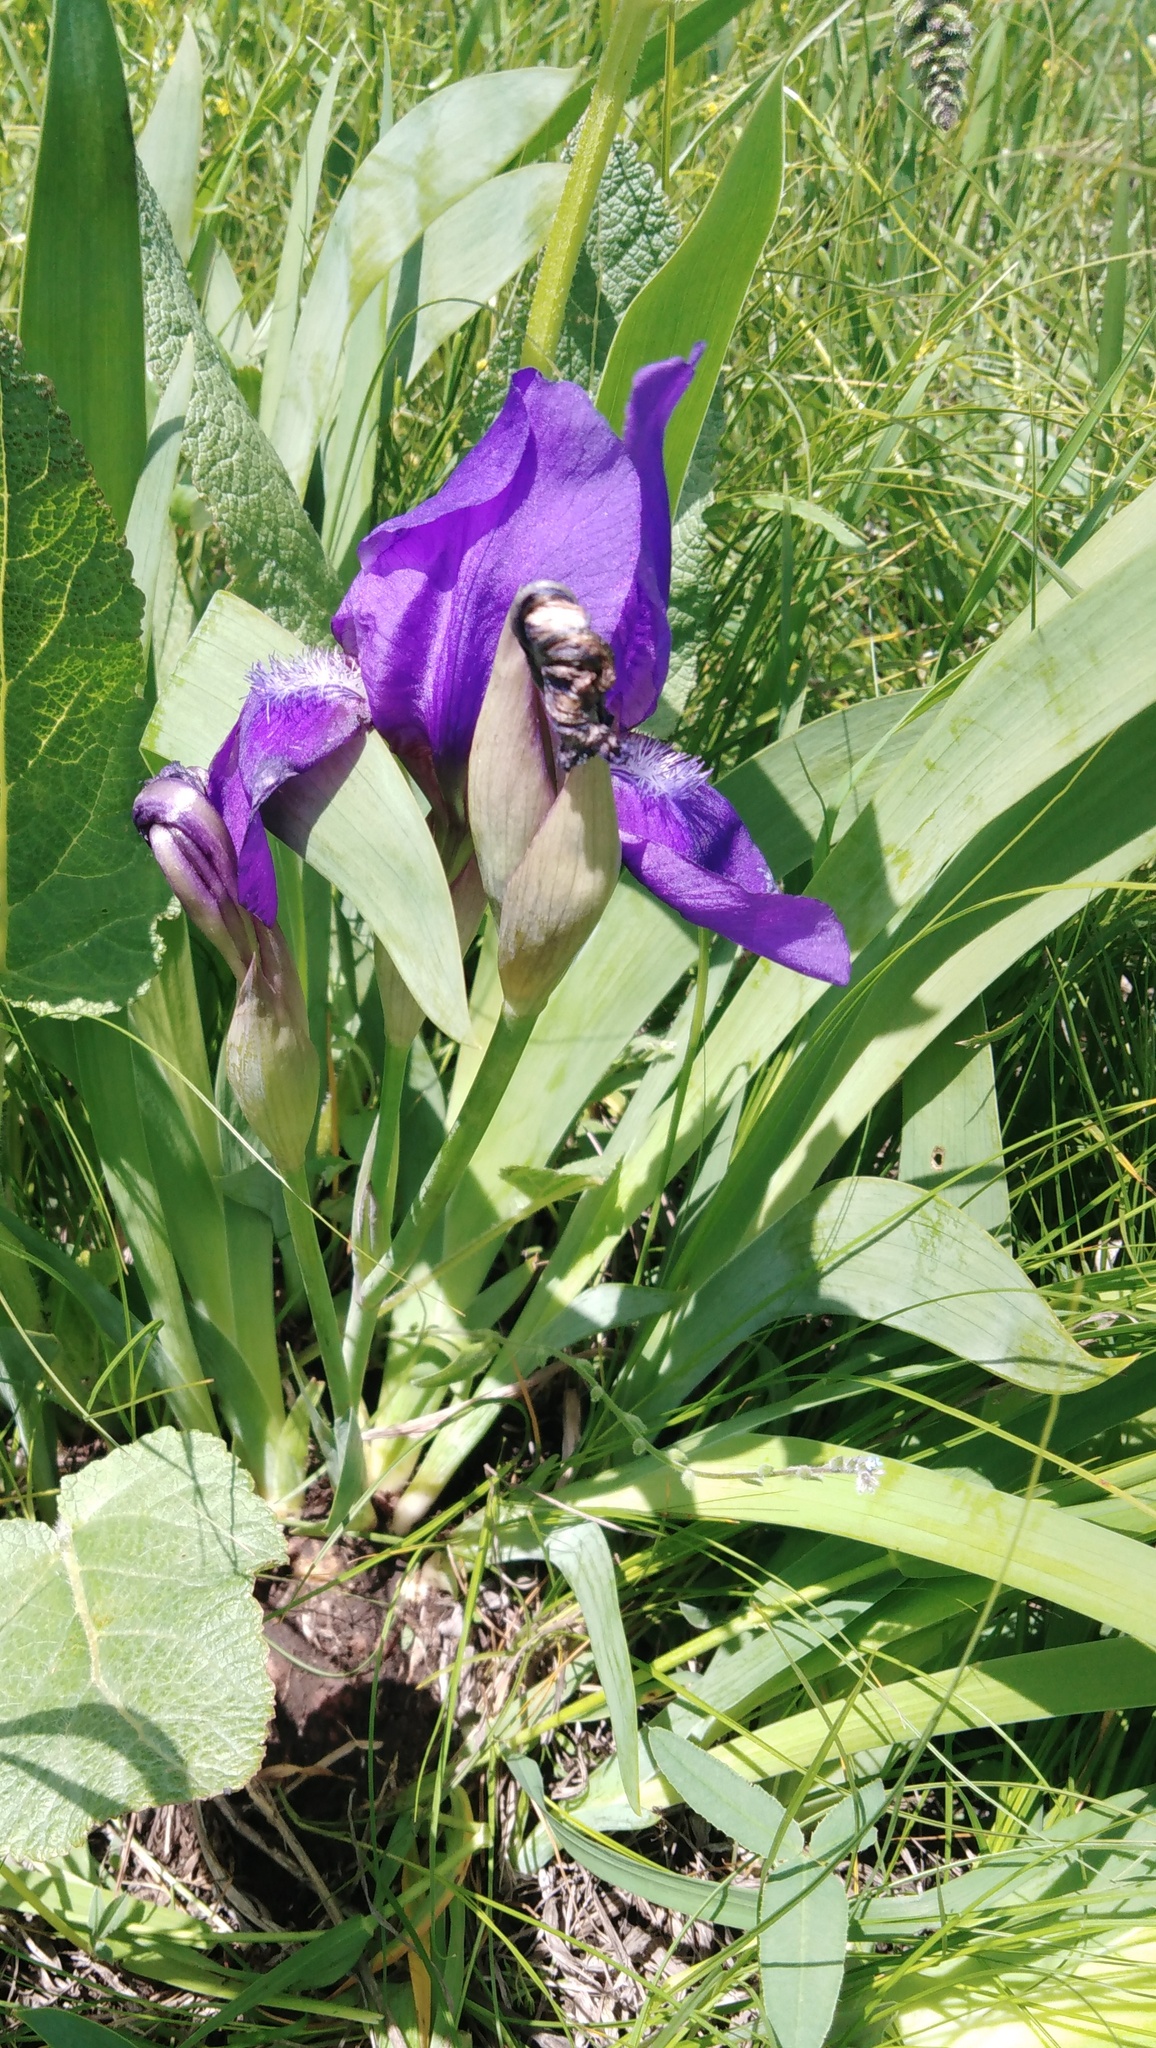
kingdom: Plantae
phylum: Tracheophyta
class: Liliopsida
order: Asparagales
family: Iridaceae
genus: Iris
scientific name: Iris aphylla
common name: Stool iris
